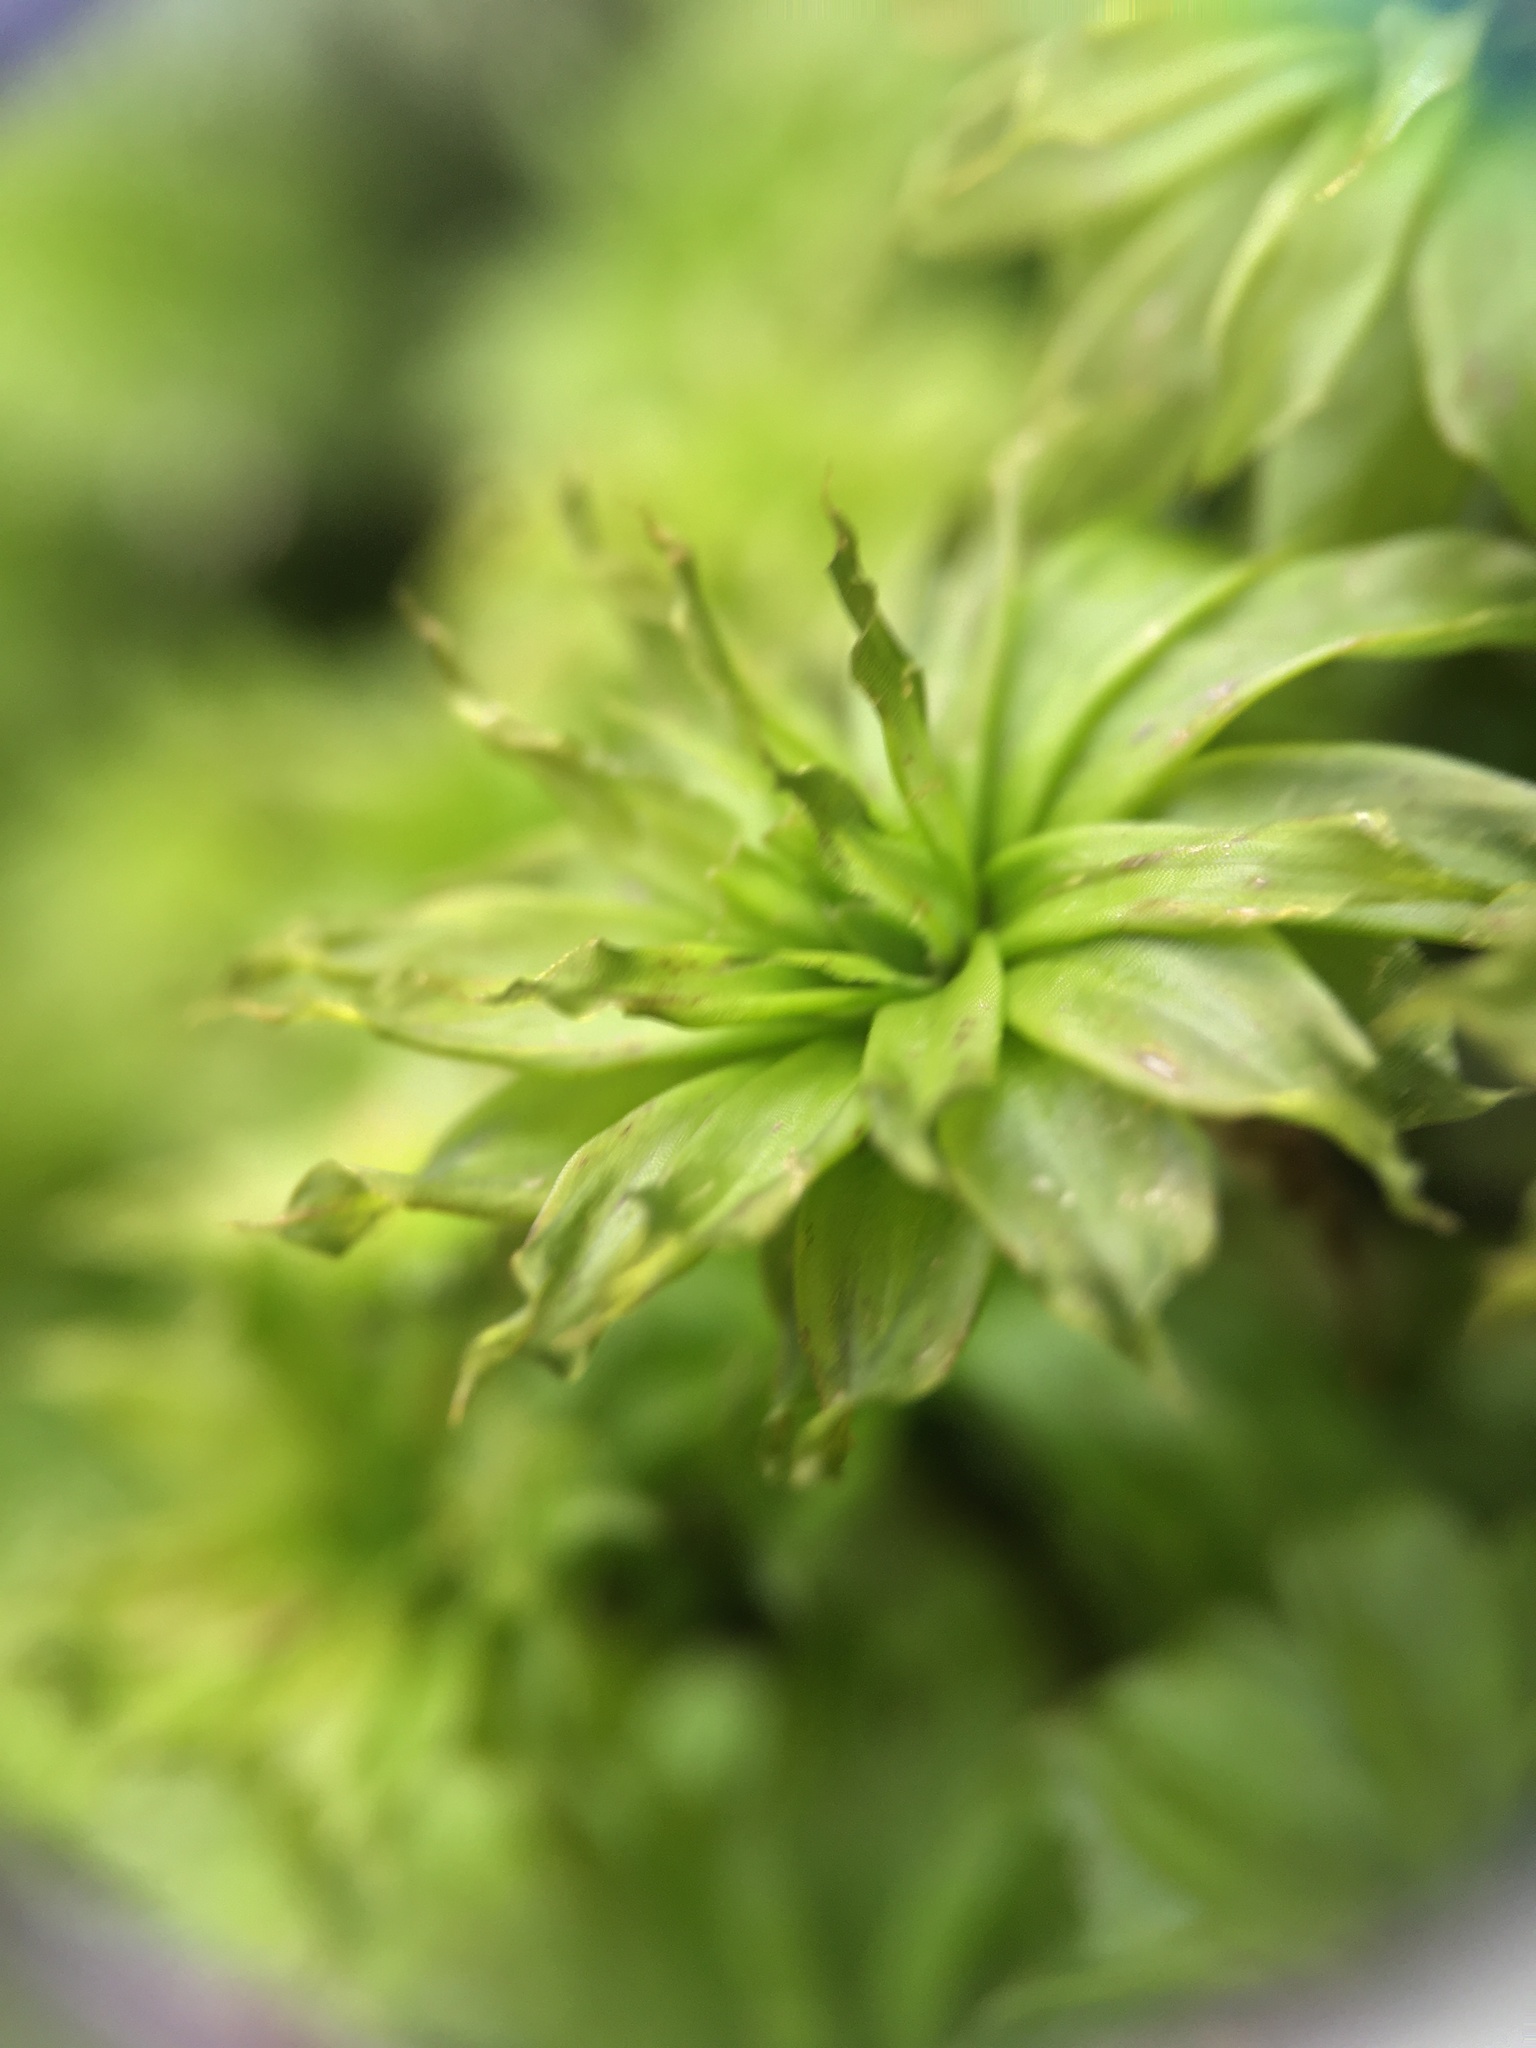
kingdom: Plantae
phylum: Bryophyta
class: Bryopsida
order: Bryales
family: Bryaceae
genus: Rhodobryum
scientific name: Rhodobryum ontariense
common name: Ontario rhodobryum moss
